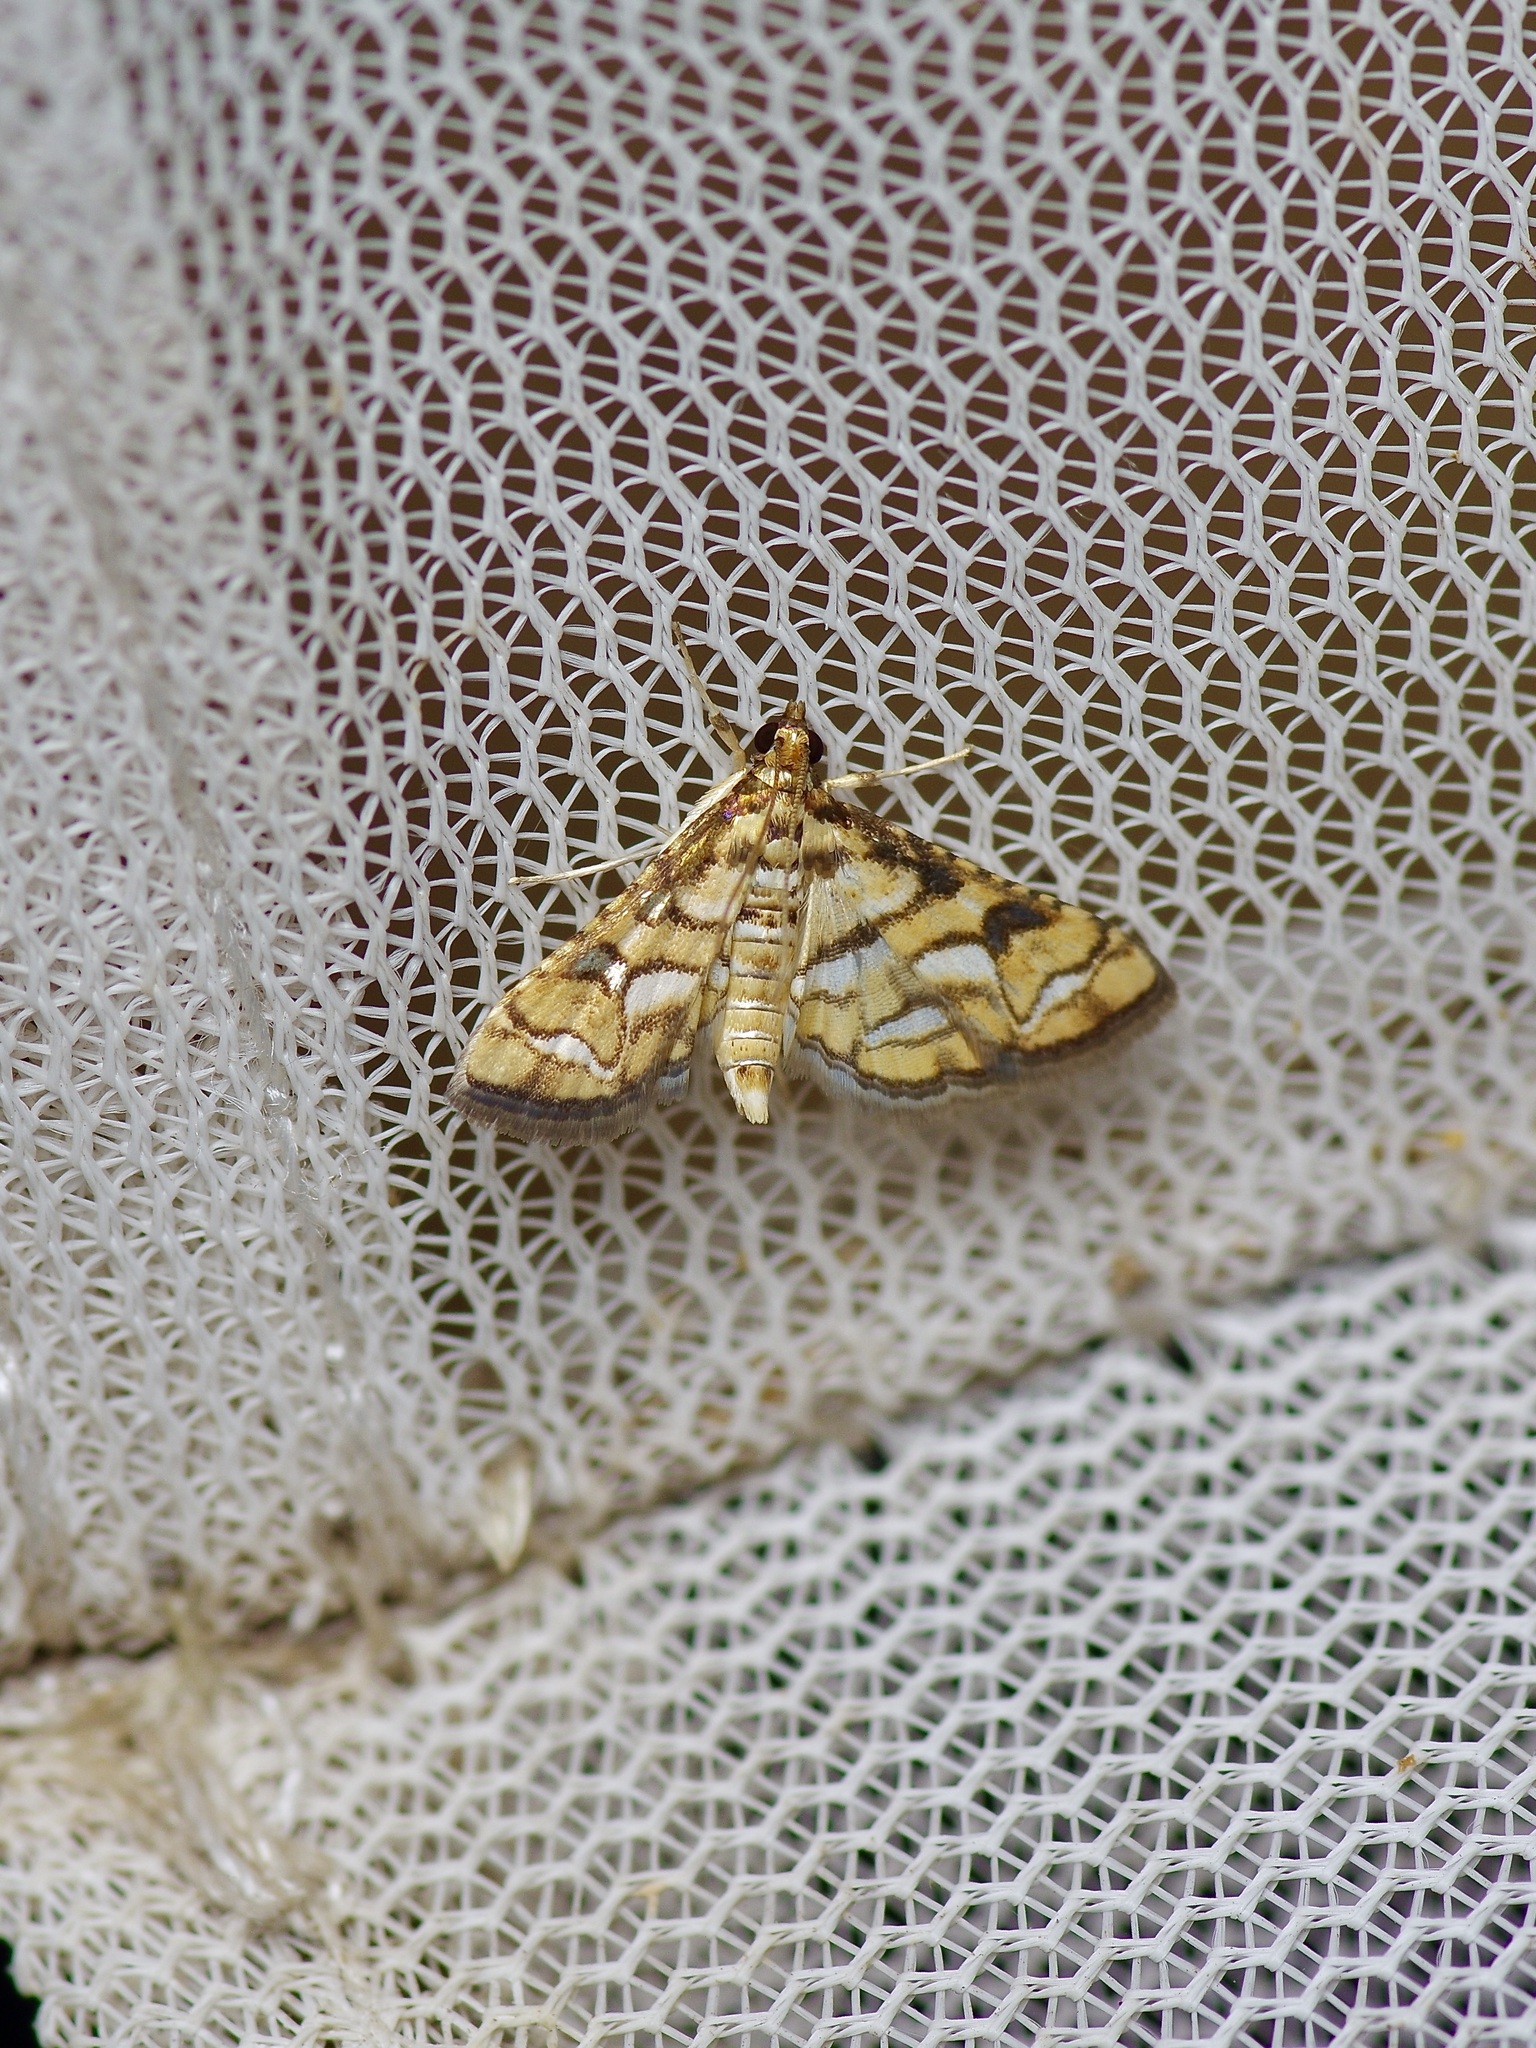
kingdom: Animalia
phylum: Arthropoda
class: Insecta
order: Lepidoptera
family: Crambidae
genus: Hileithia
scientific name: Hileithia magualis
